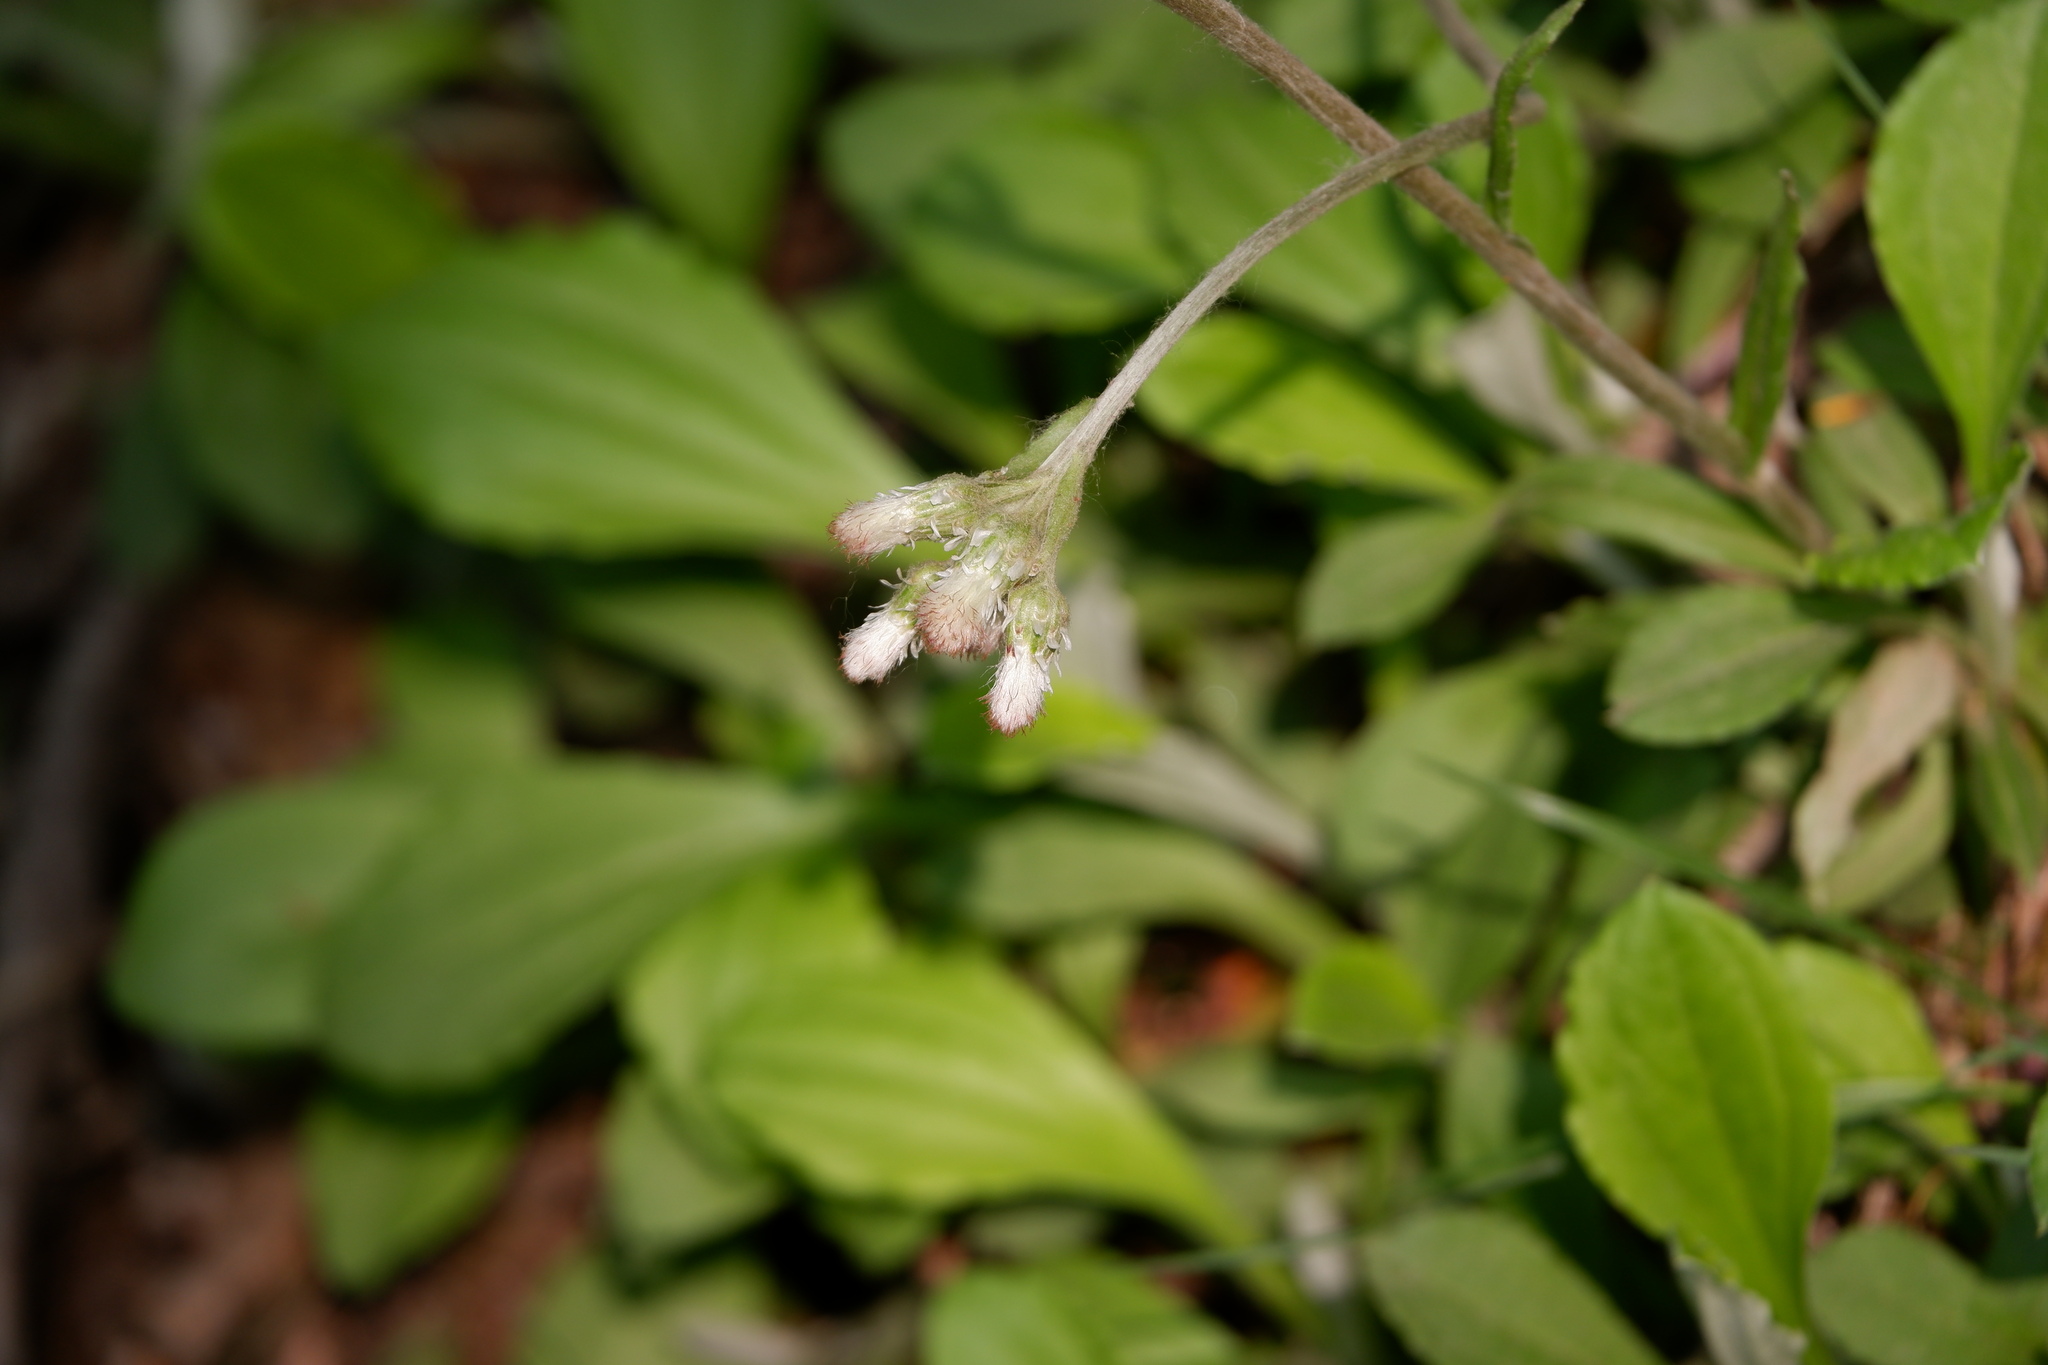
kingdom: Plantae
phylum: Tracheophyta
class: Magnoliopsida
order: Asterales
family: Asteraceae
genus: Antennaria
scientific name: Antennaria parlinii
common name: Parlin's pussytoes
